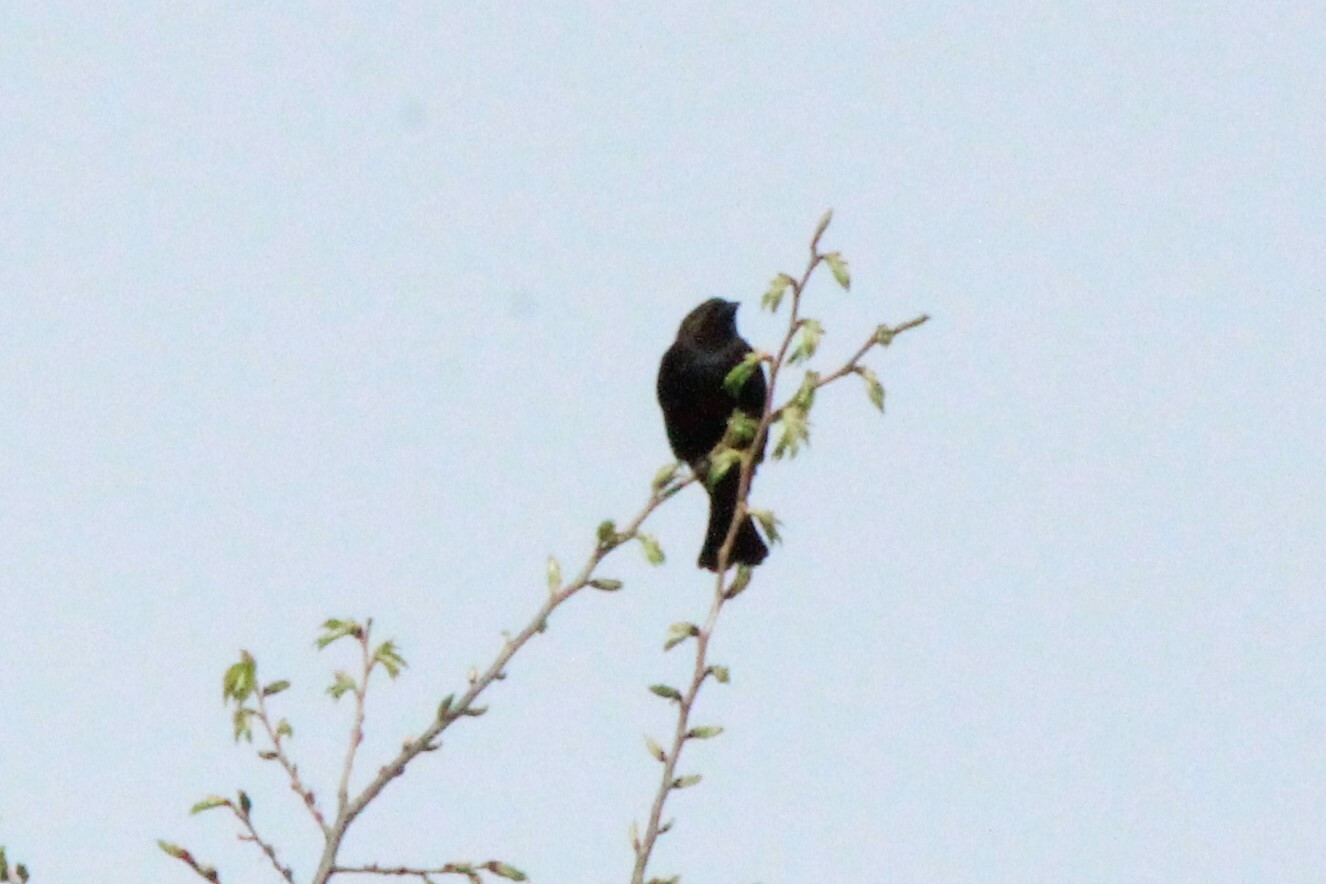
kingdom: Animalia
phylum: Chordata
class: Aves
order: Passeriformes
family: Icteridae
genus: Molothrus
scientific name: Molothrus ater
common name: Brown-headed cowbird
